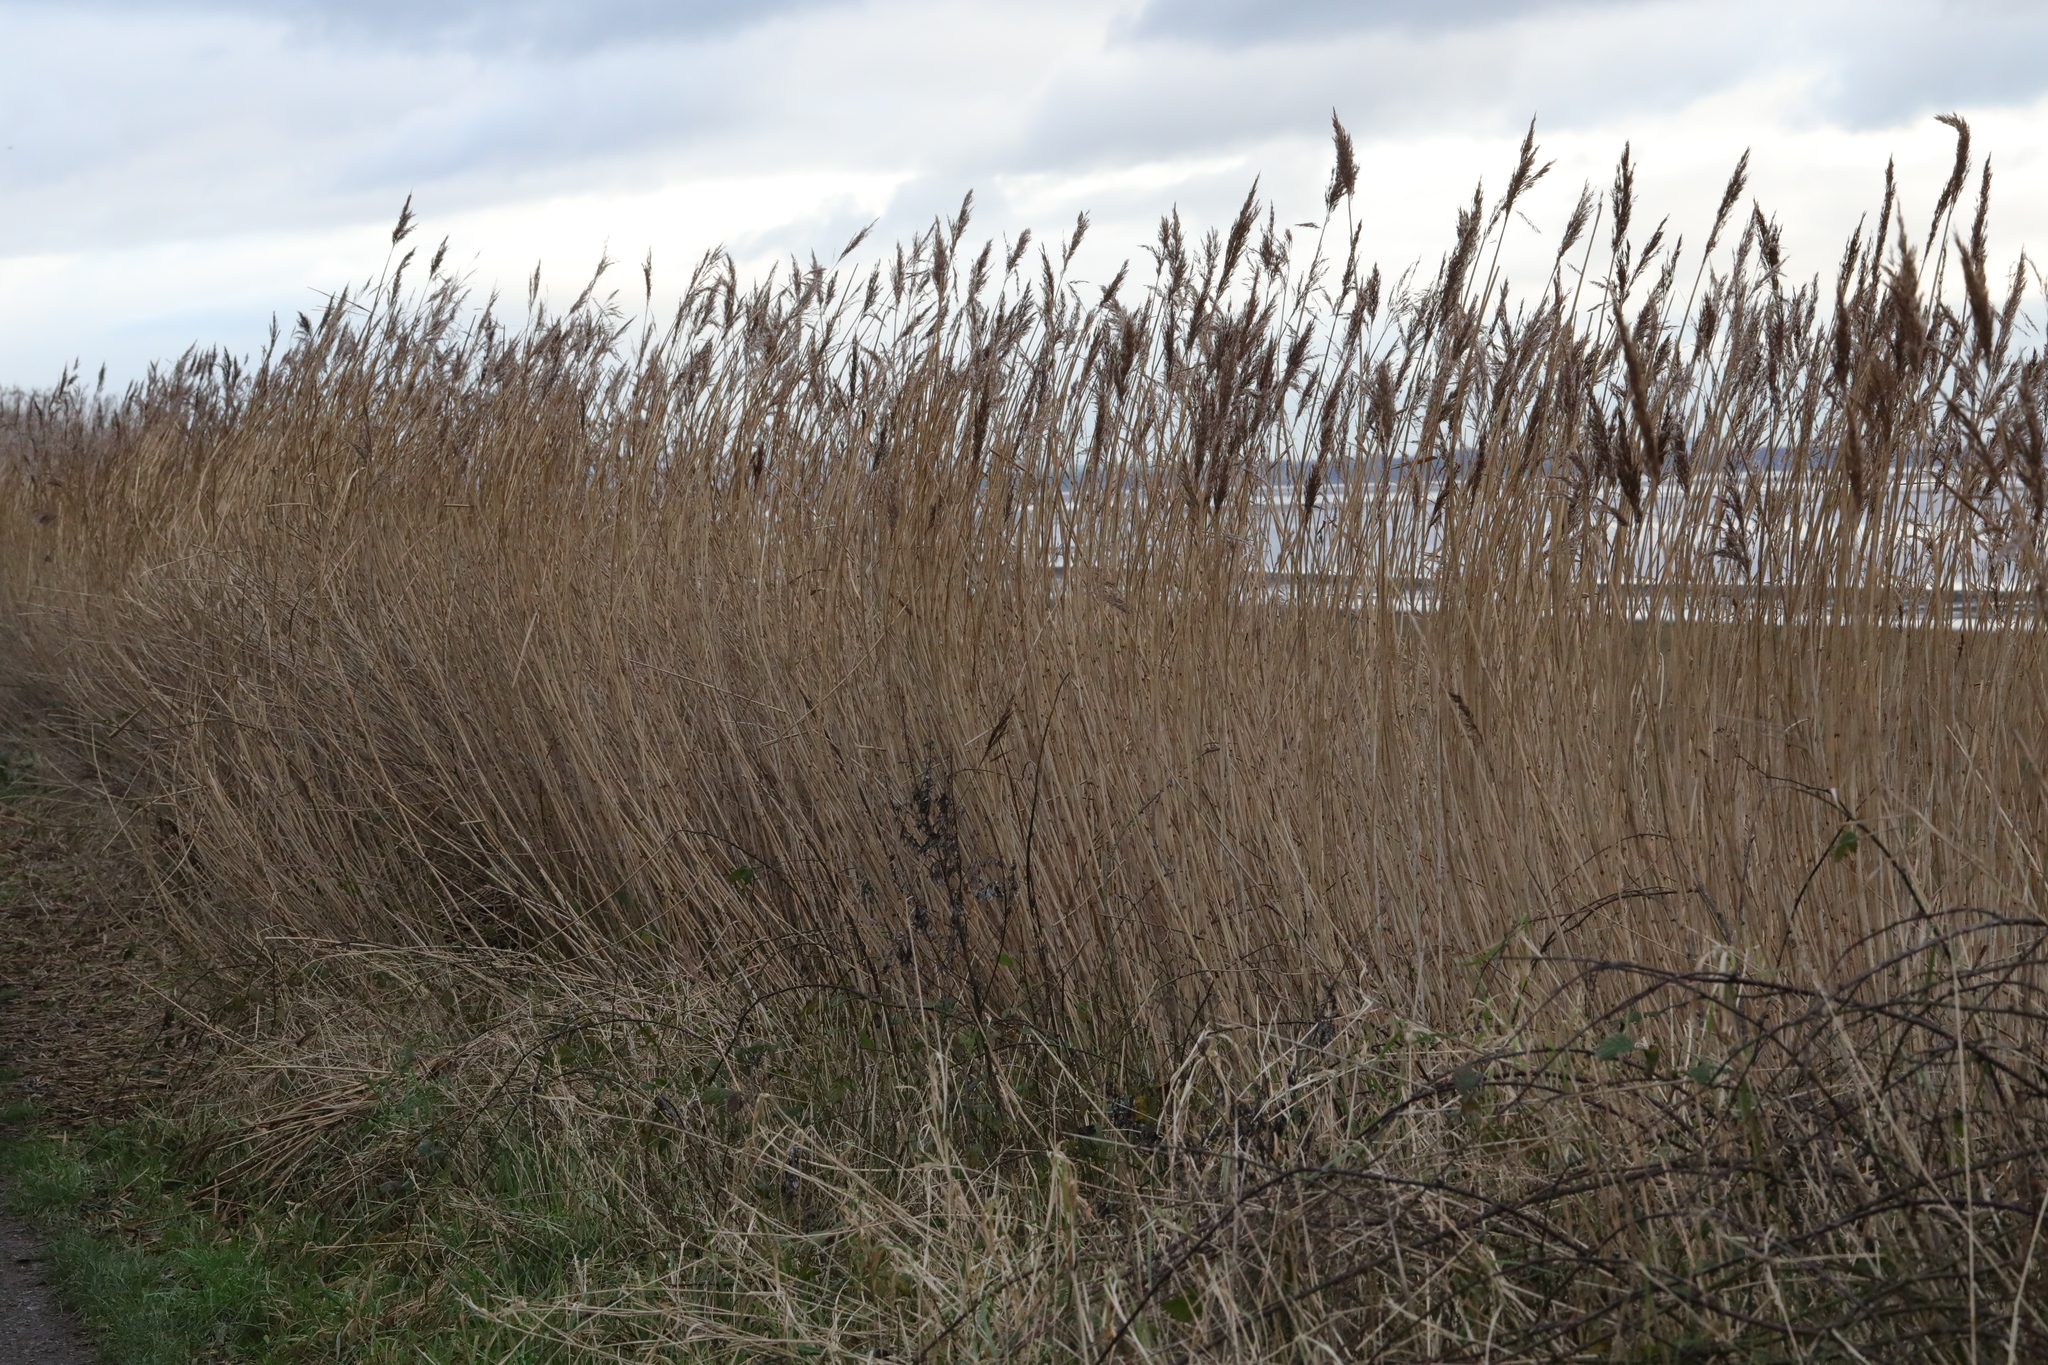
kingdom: Plantae
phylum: Tracheophyta
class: Liliopsida
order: Poales
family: Poaceae
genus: Phragmites
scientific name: Phragmites australis
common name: Common reed
